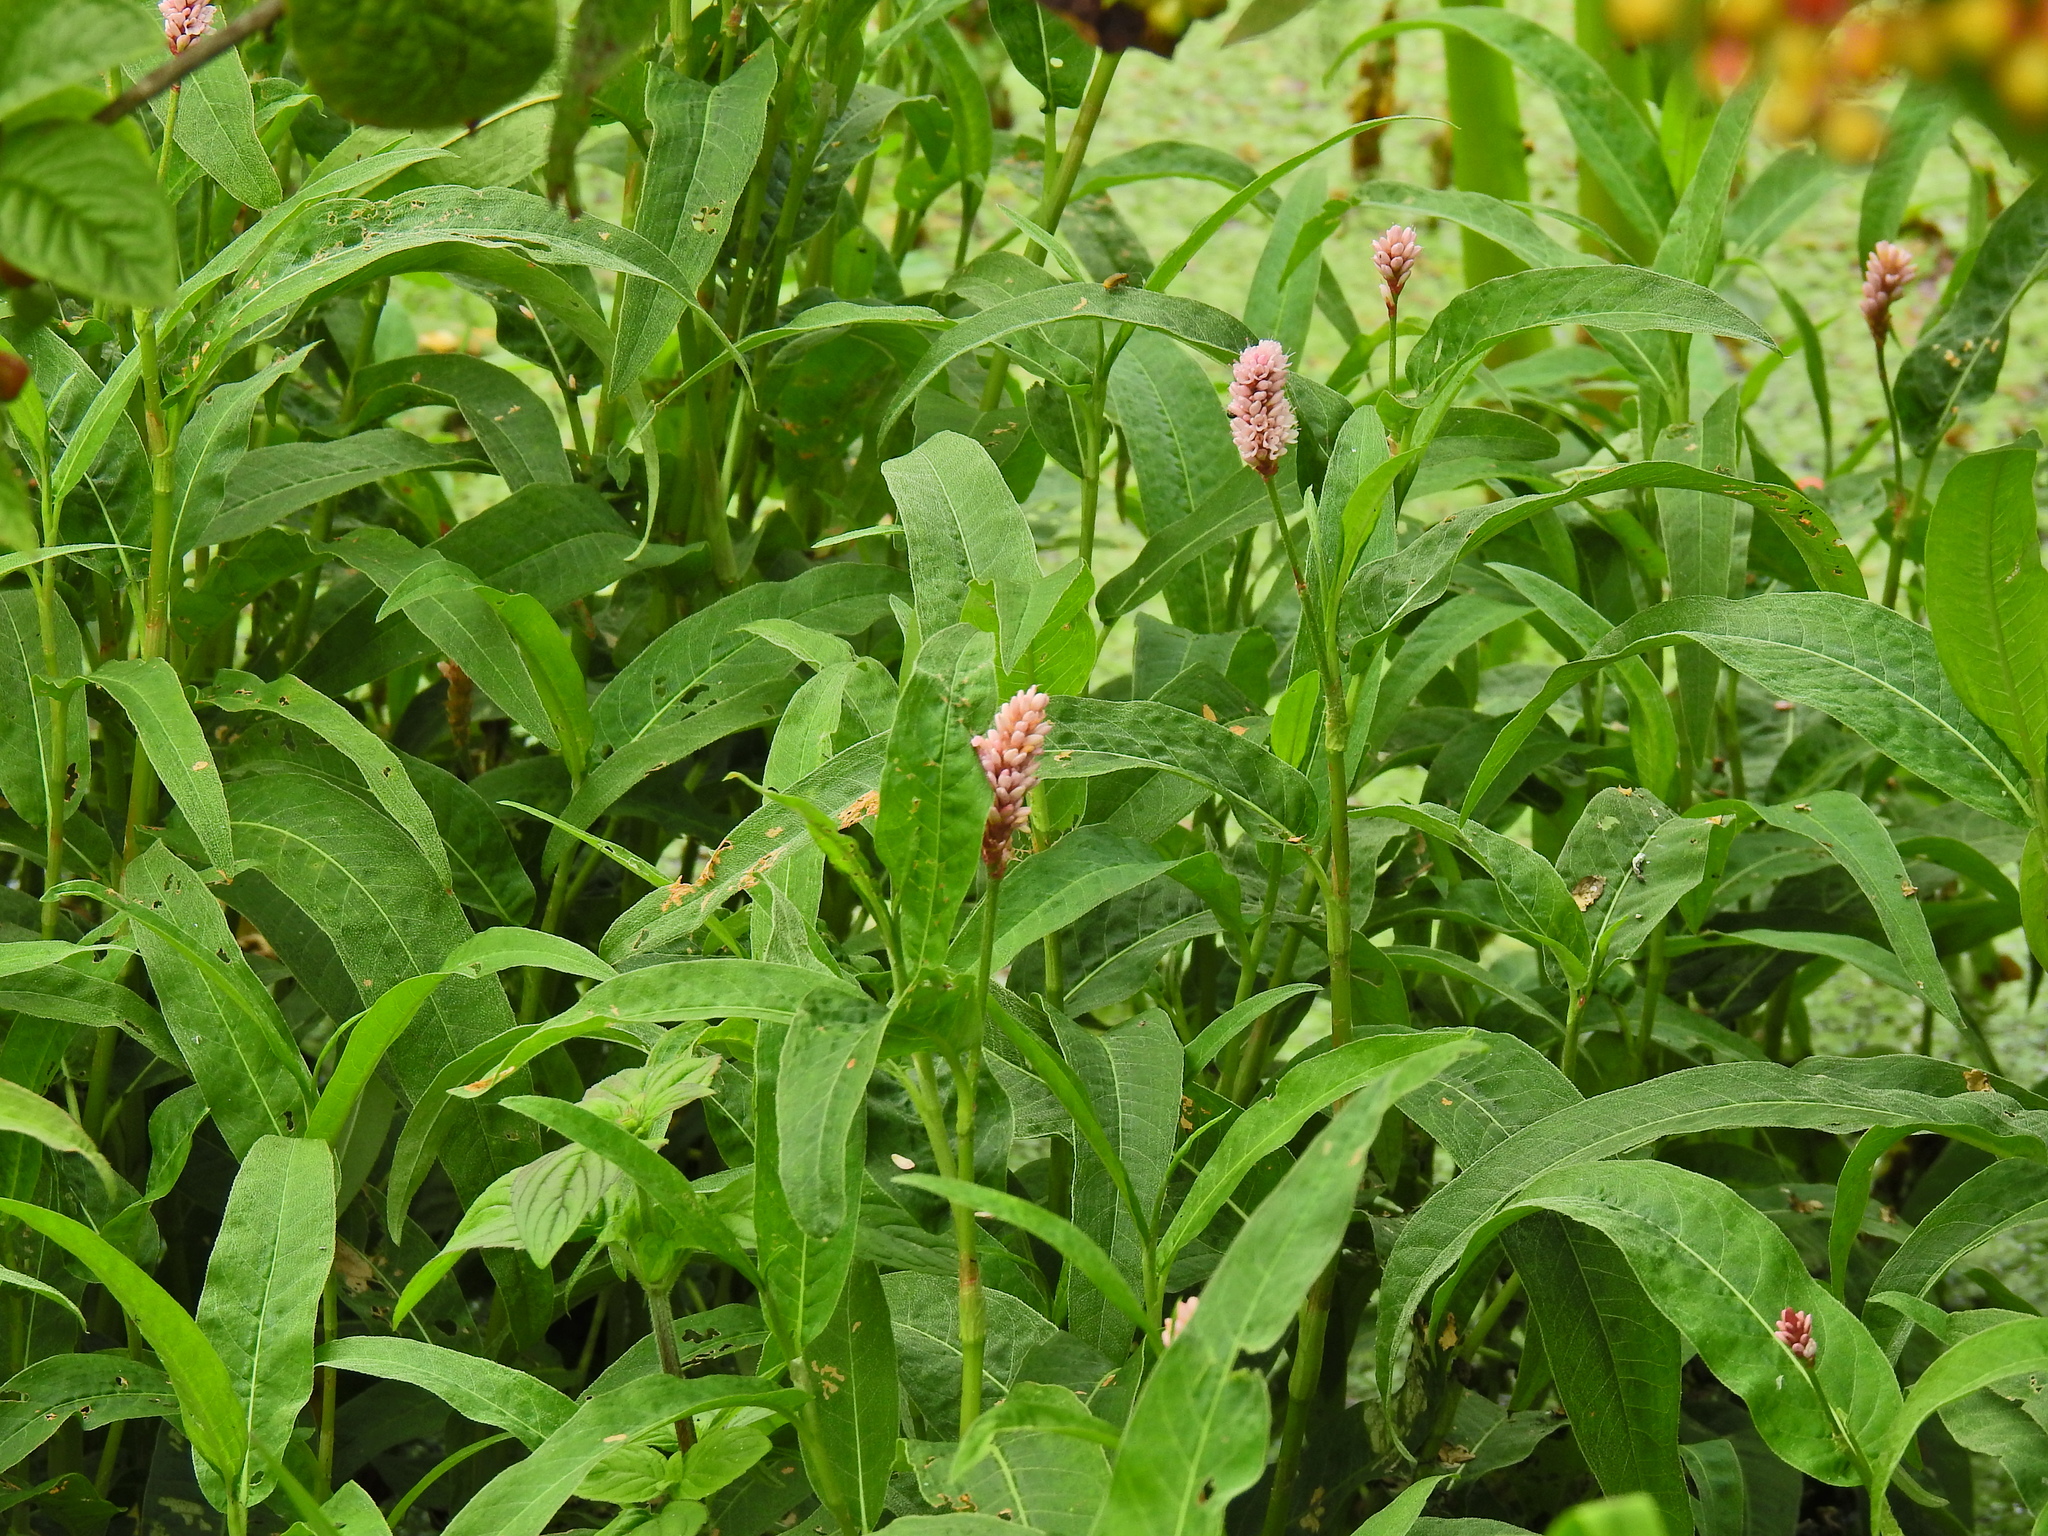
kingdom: Plantae
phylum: Tracheophyta
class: Magnoliopsida
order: Caryophyllales
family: Polygonaceae
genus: Persicaria
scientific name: Persicaria amphibia
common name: Amphibious bistort
